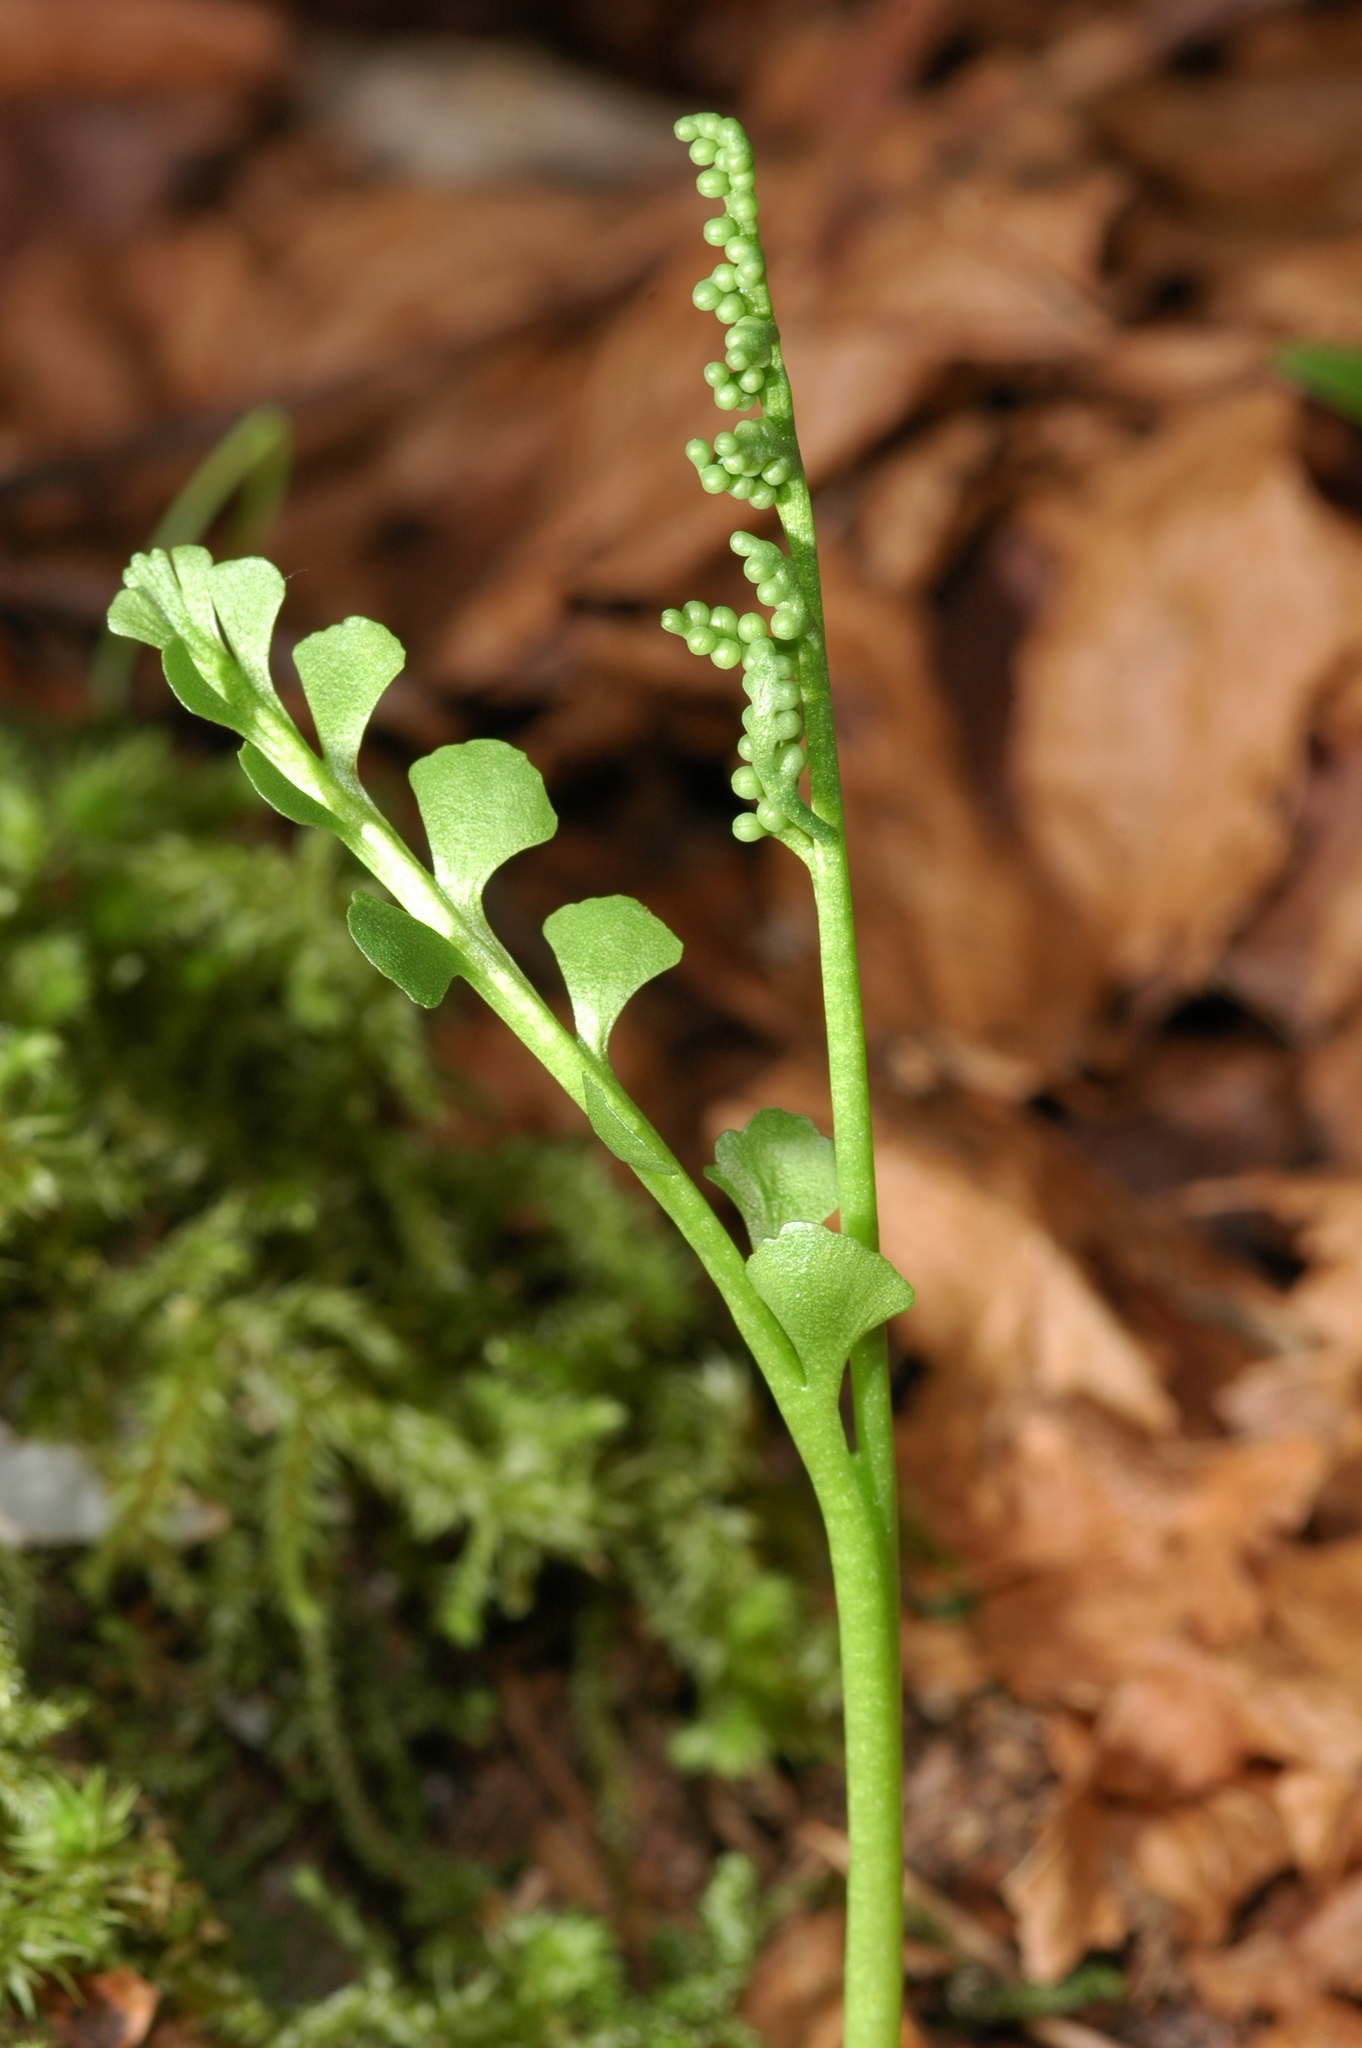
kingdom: Plantae
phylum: Tracheophyta
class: Polypodiopsida
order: Ophioglossales
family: Ophioglossaceae
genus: Botrychium
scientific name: Botrychium minganense
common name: Mingan grapefern
